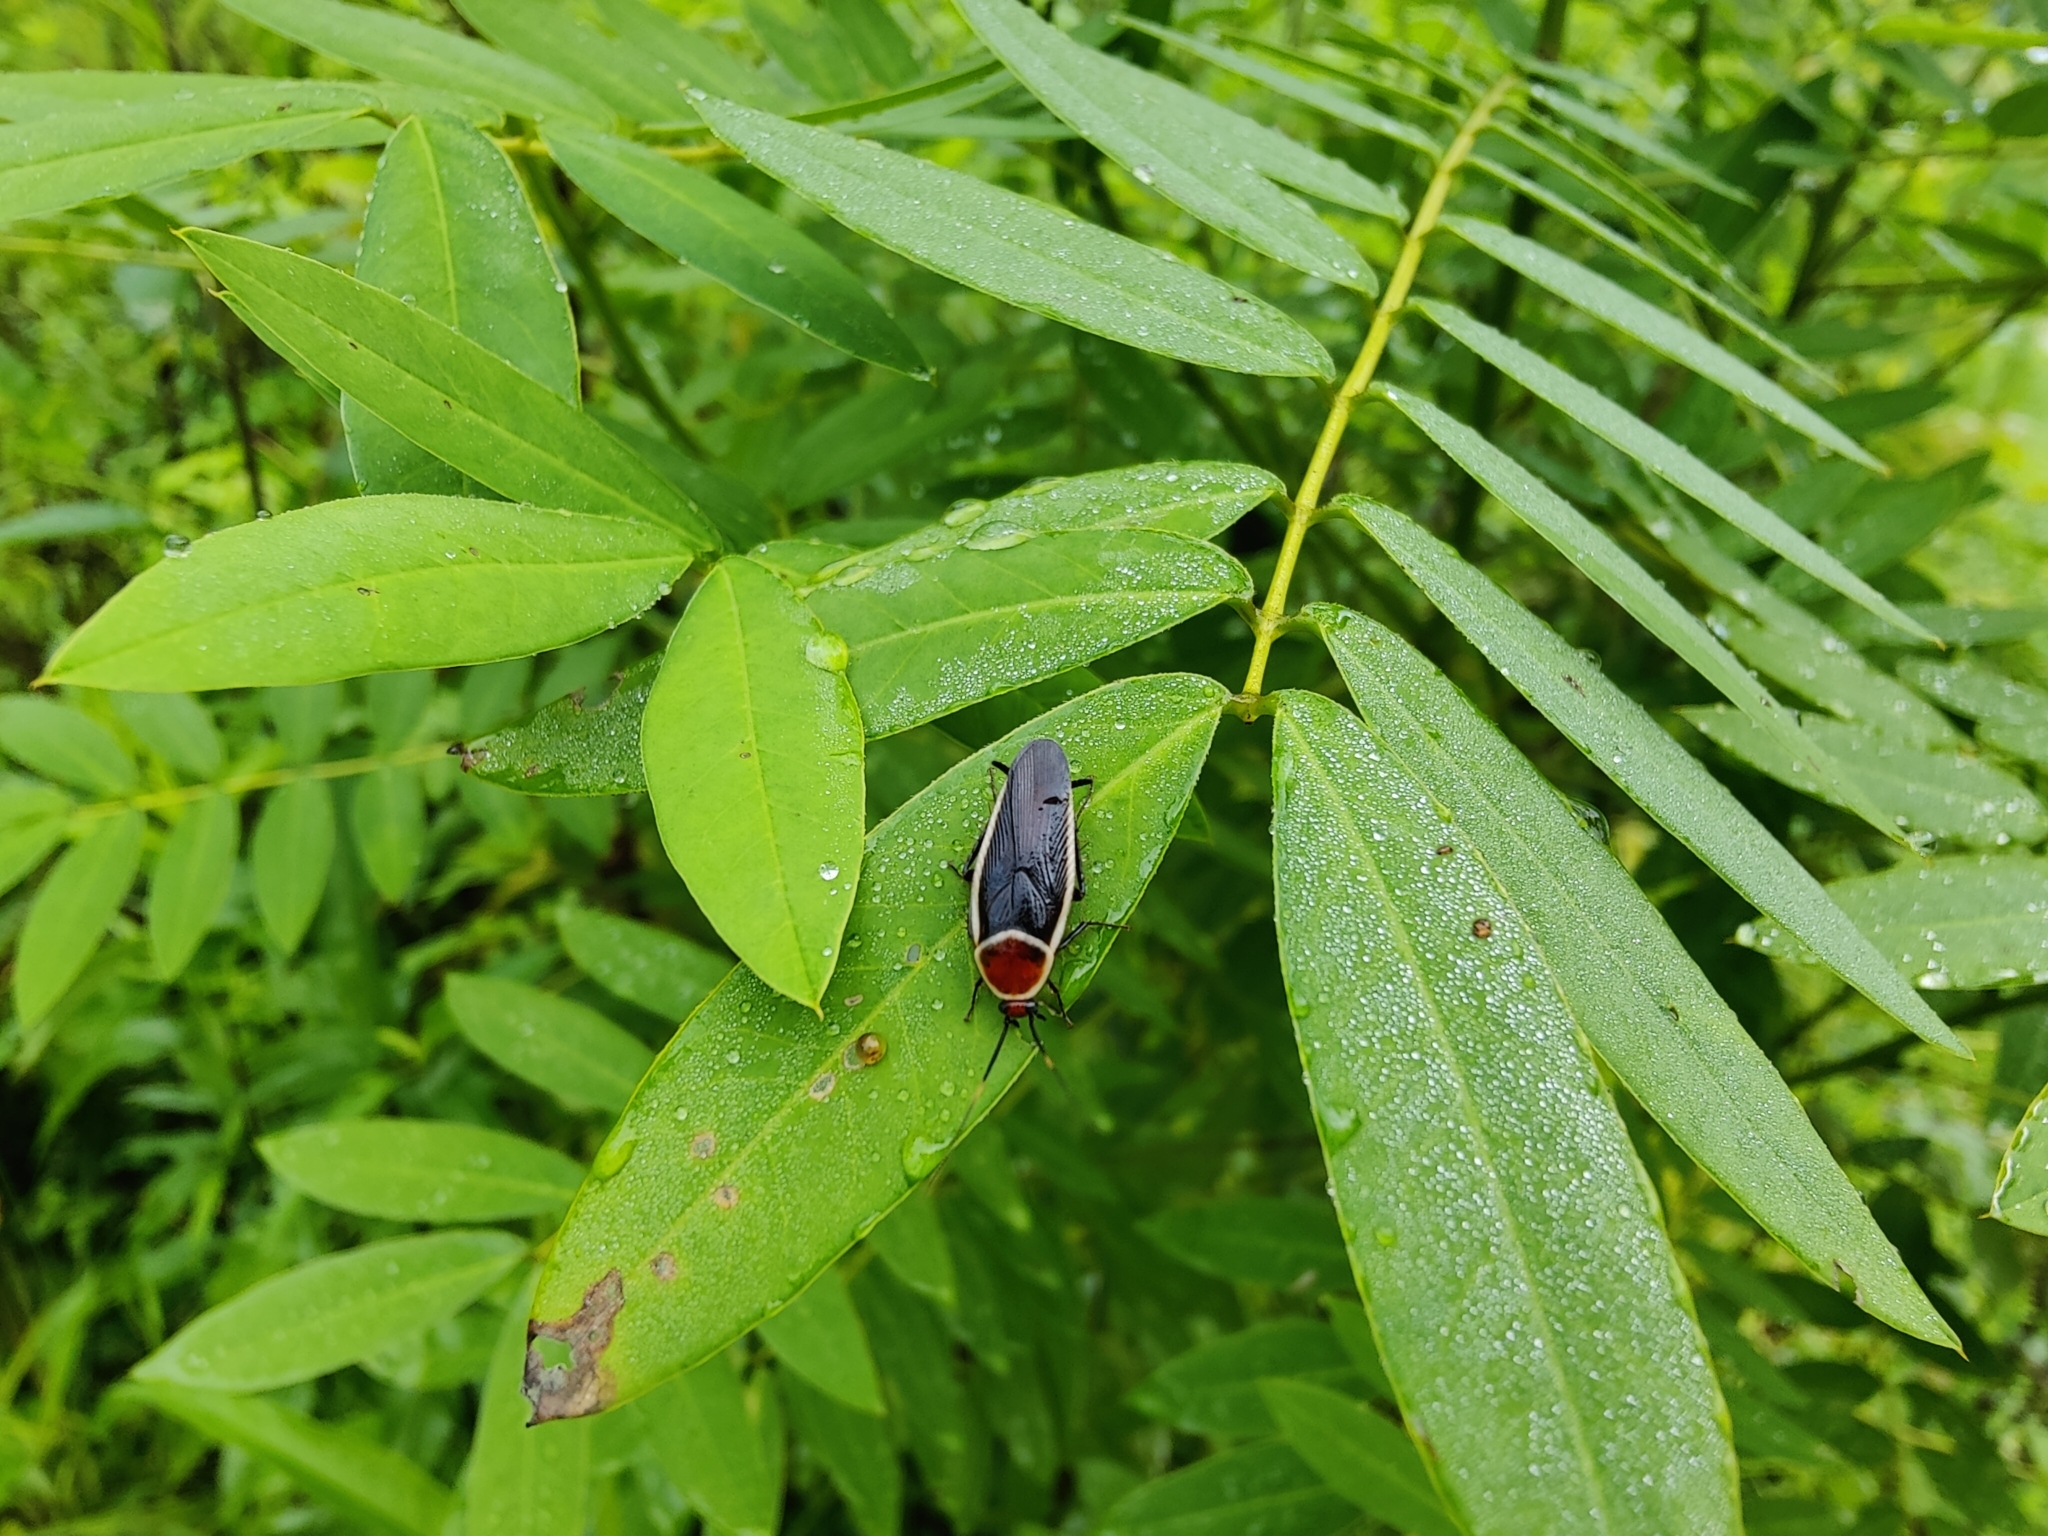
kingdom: Animalia
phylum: Arthropoda
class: Insecta
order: Blattodea
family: Ectobiidae
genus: Pseudomops
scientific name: Pseudomops septentrionalis
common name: Pale-bordered field cockroach
